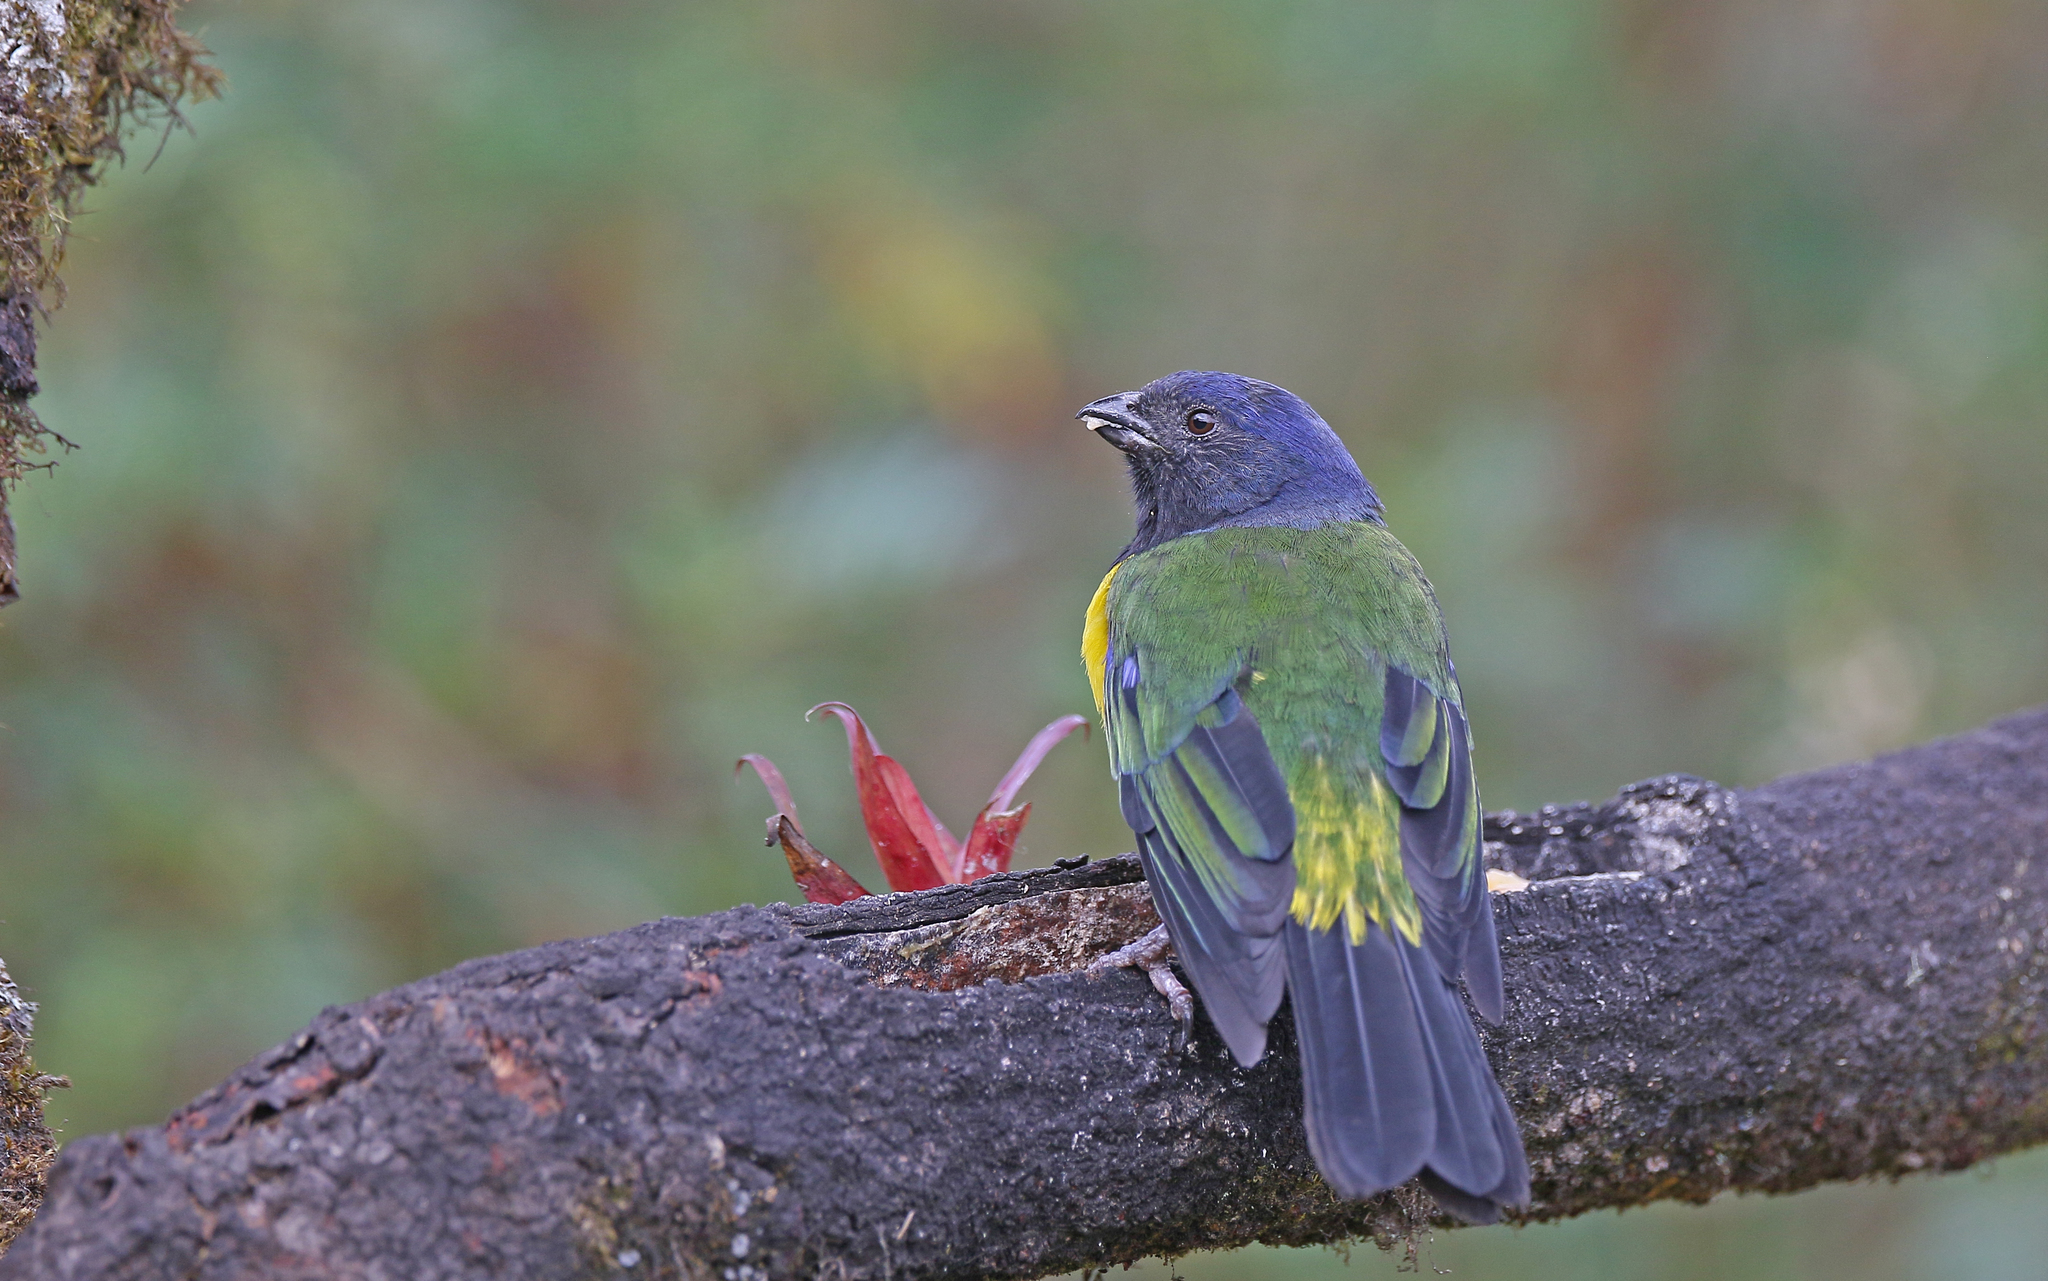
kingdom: Animalia
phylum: Chordata
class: Aves
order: Passeriformes
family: Thraupidae
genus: Cnemathraupis
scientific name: Cnemathraupis eximia
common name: Black-chested mountain-tanager
